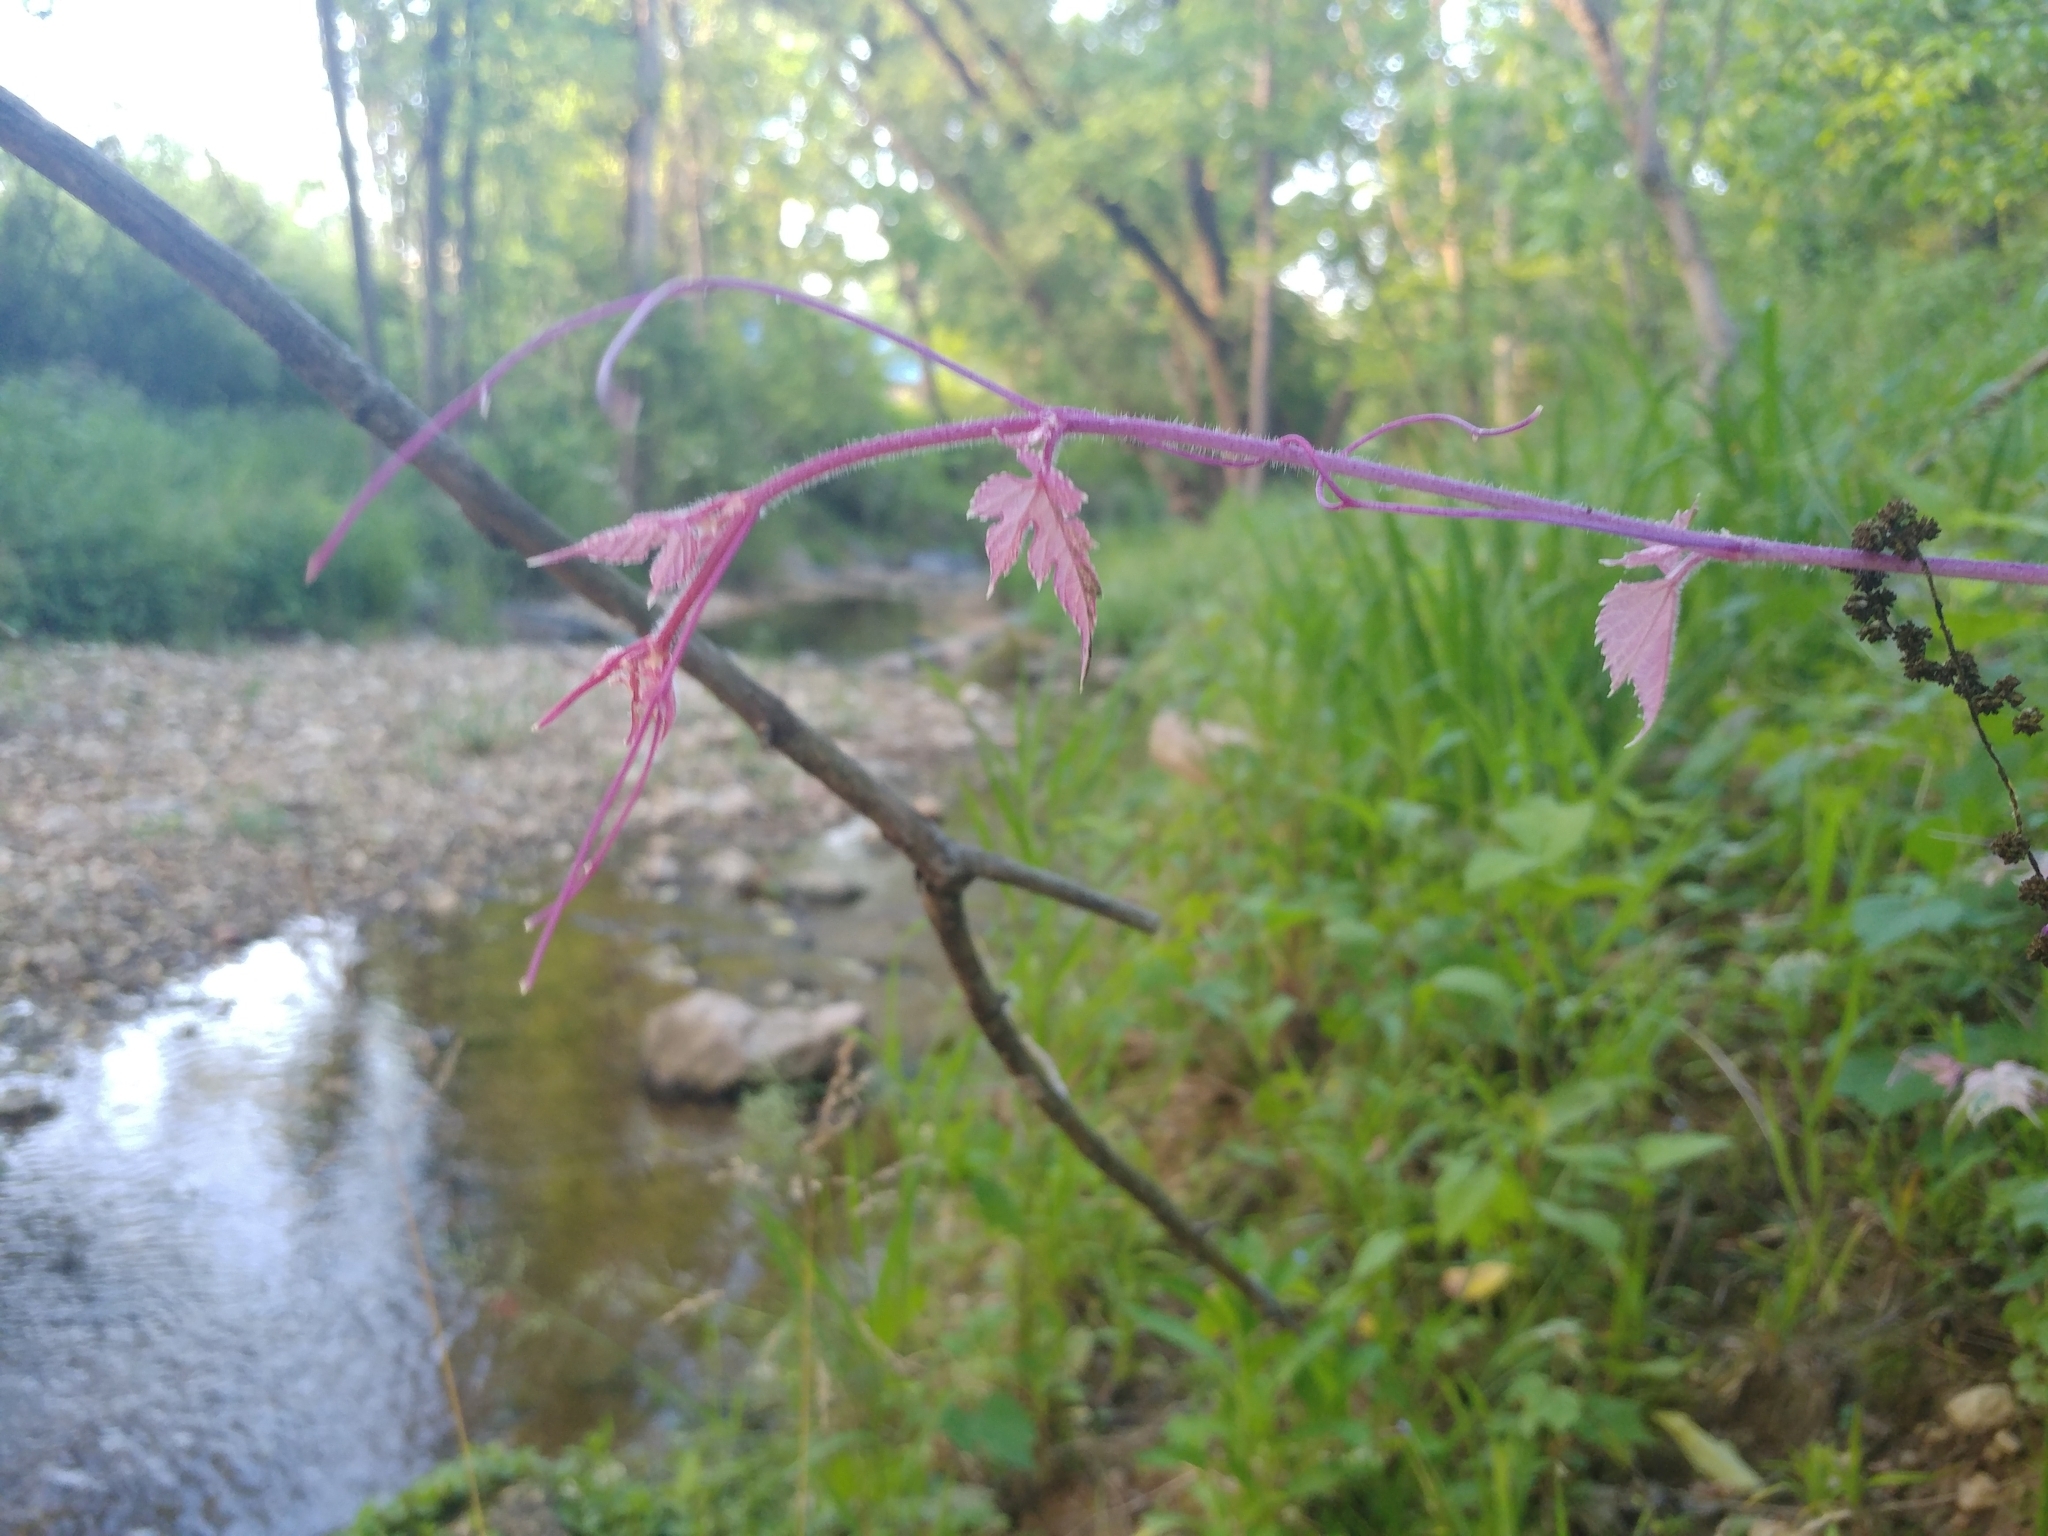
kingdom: Plantae
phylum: Tracheophyta
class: Magnoliopsida
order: Vitales
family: Vitaceae
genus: Ampelopsis
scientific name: Ampelopsis glandulosa
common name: Amur peppervine
